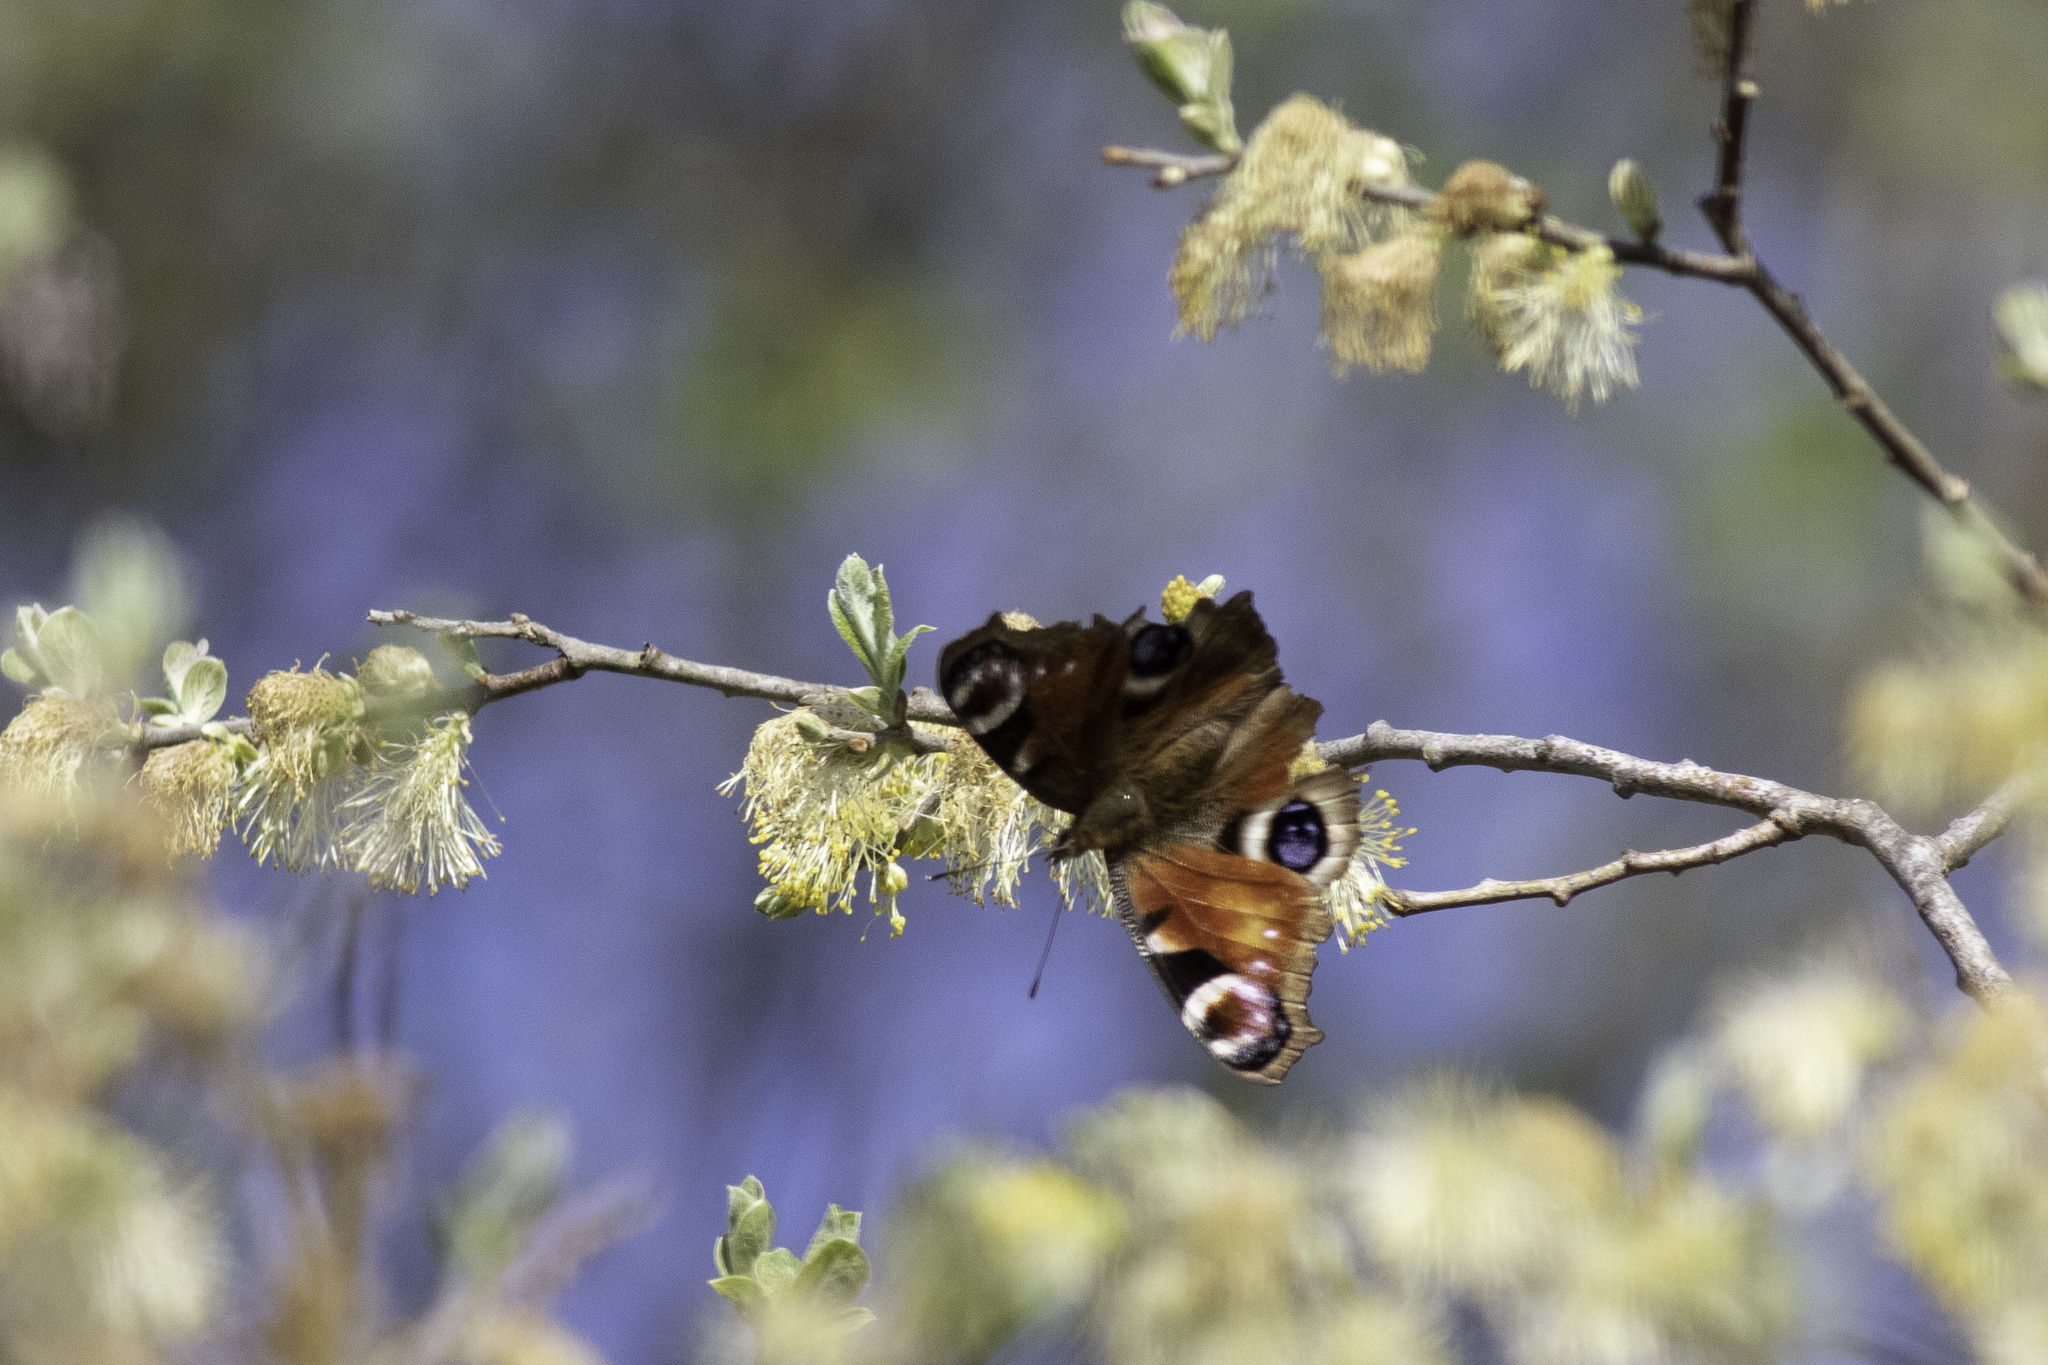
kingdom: Animalia
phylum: Arthropoda
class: Insecta
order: Lepidoptera
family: Nymphalidae
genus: Aglais
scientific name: Aglais io
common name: Peacock
